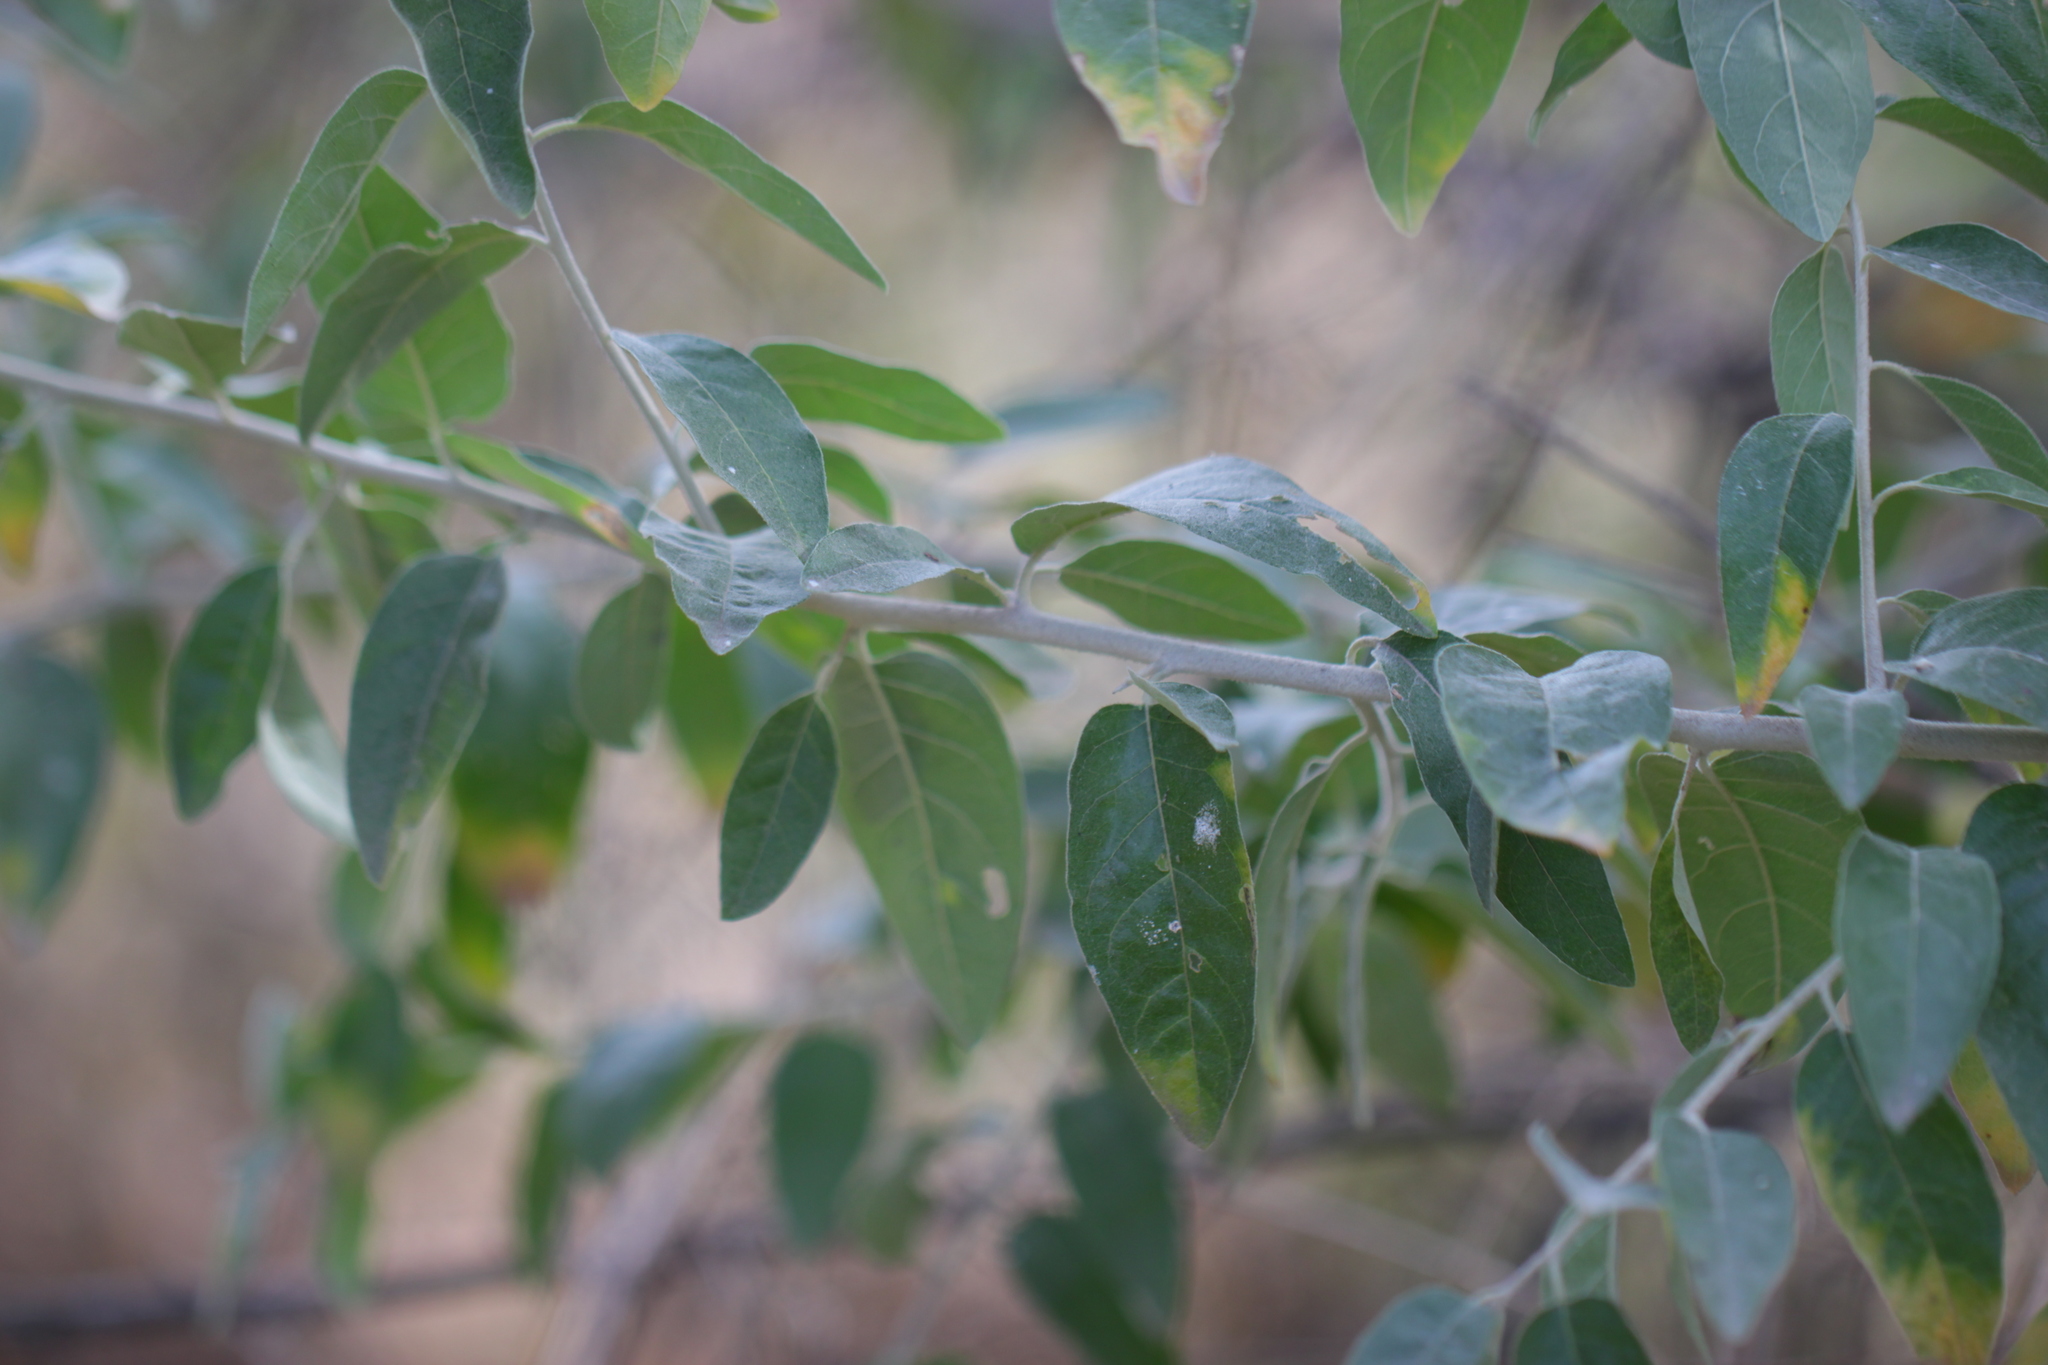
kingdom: Plantae
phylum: Tracheophyta
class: Magnoliopsida
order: Rosales
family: Elaeagnaceae
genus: Elaeagnus
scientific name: Elaeagnus angustifolia
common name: Russian olive
